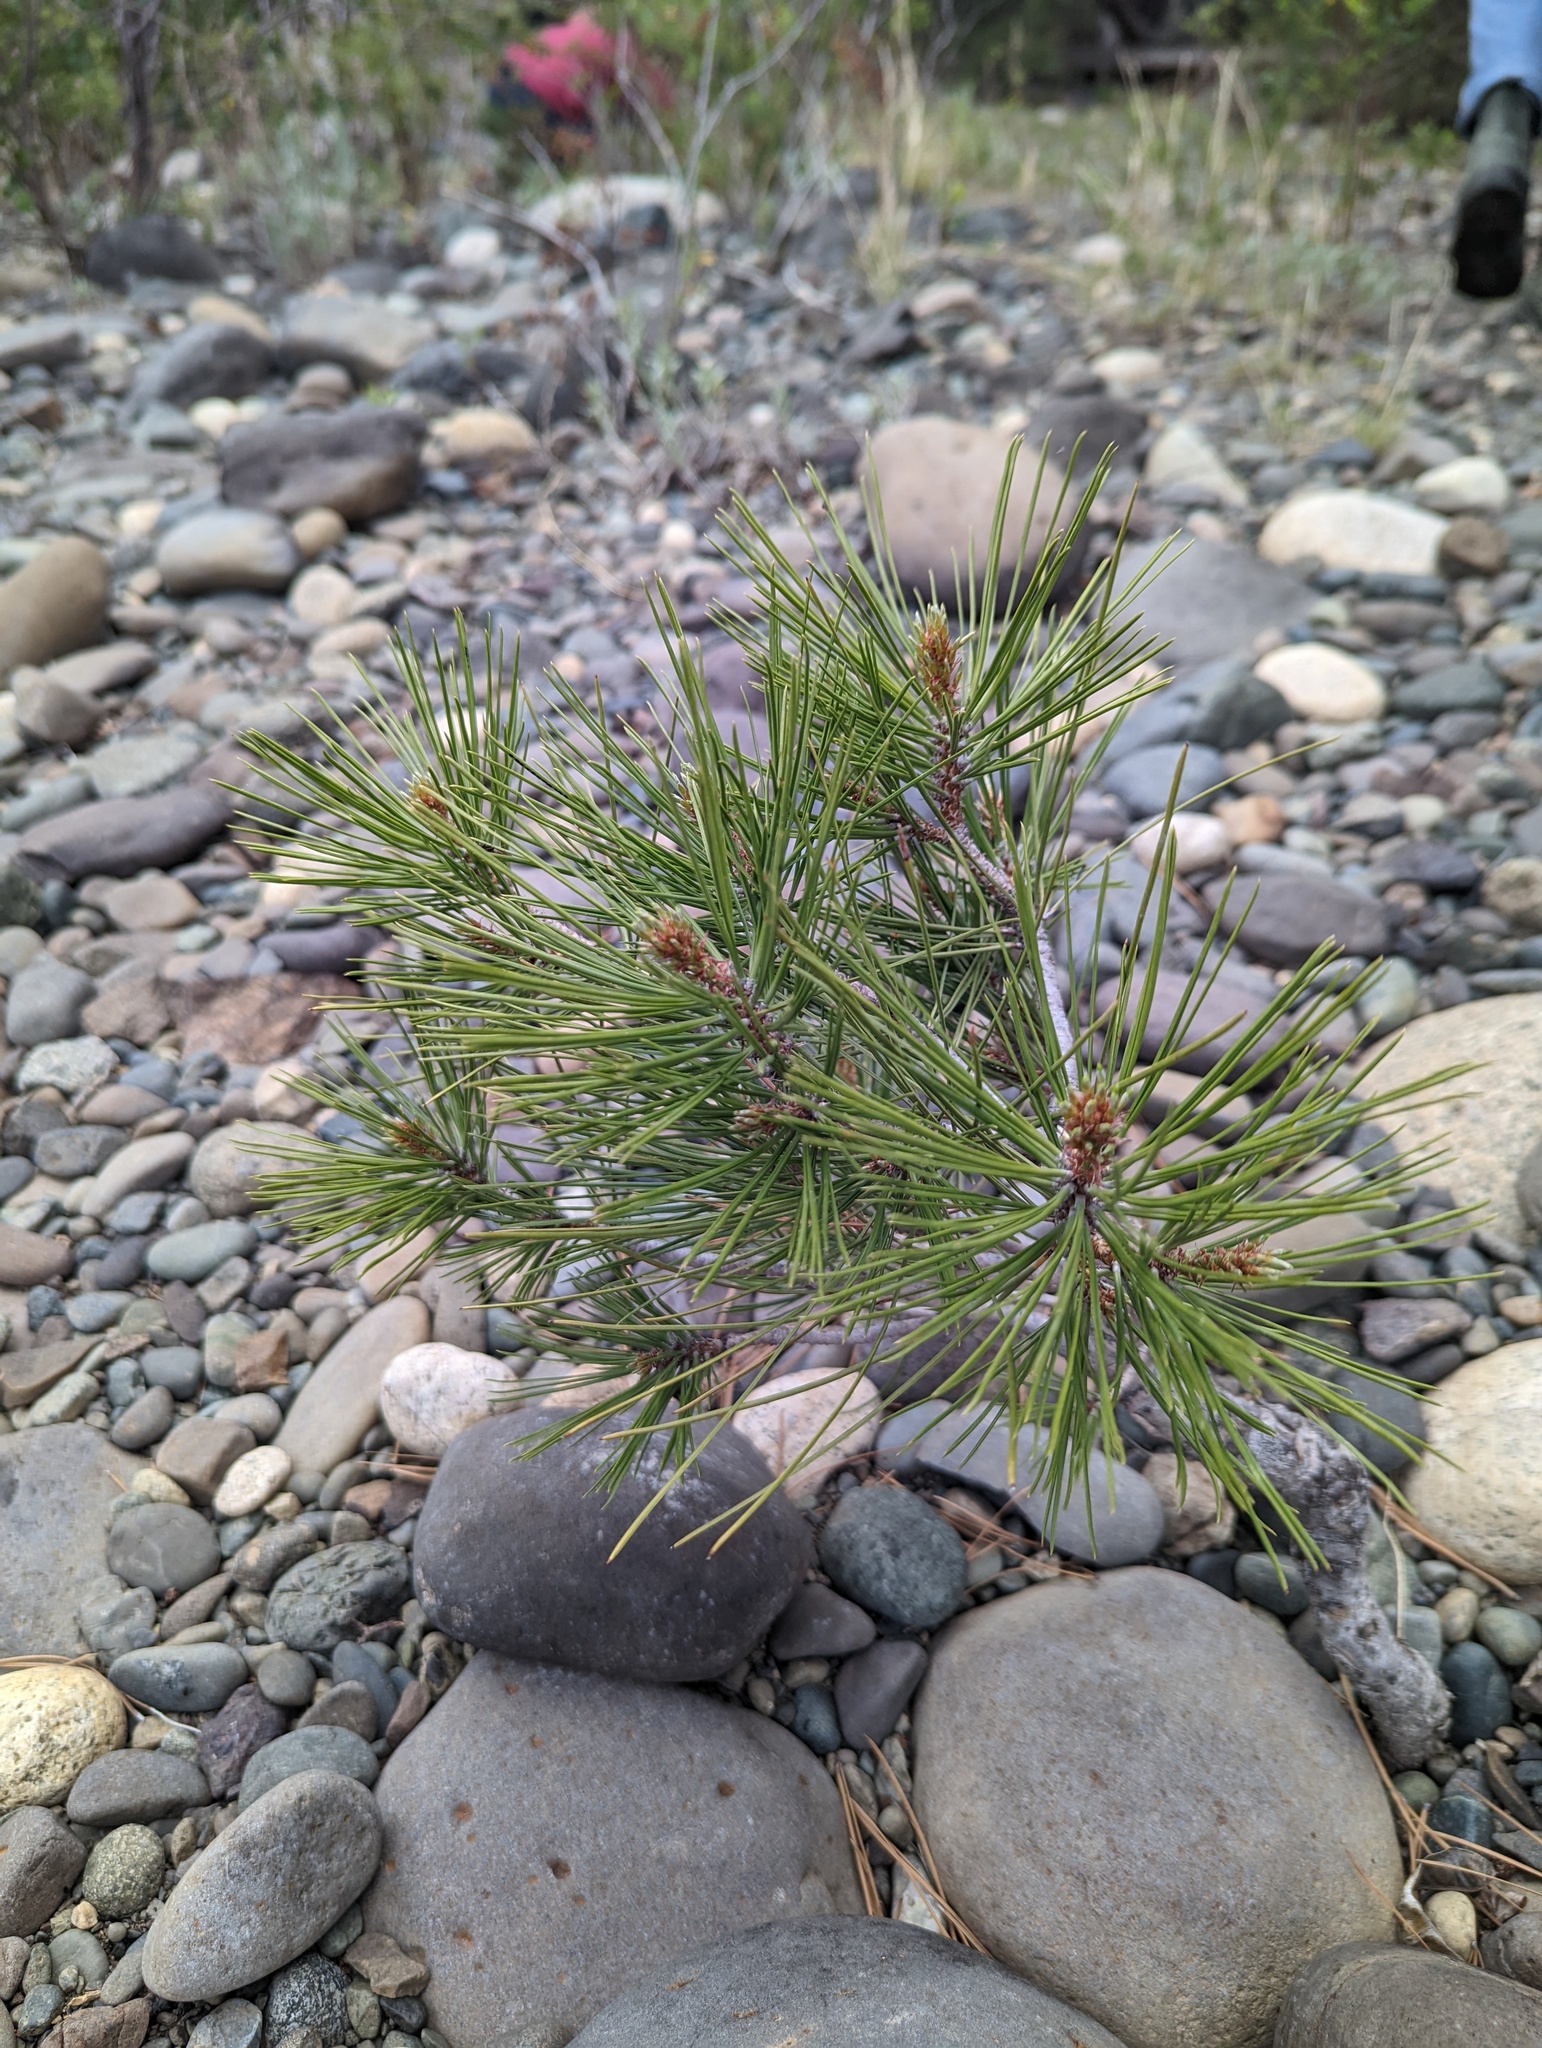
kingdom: Plantae
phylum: Tracheophyta
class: Pinopsida
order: Pinales
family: Pinaceae
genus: Pinus
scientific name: Pinus contorta
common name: Lodgepole pine
